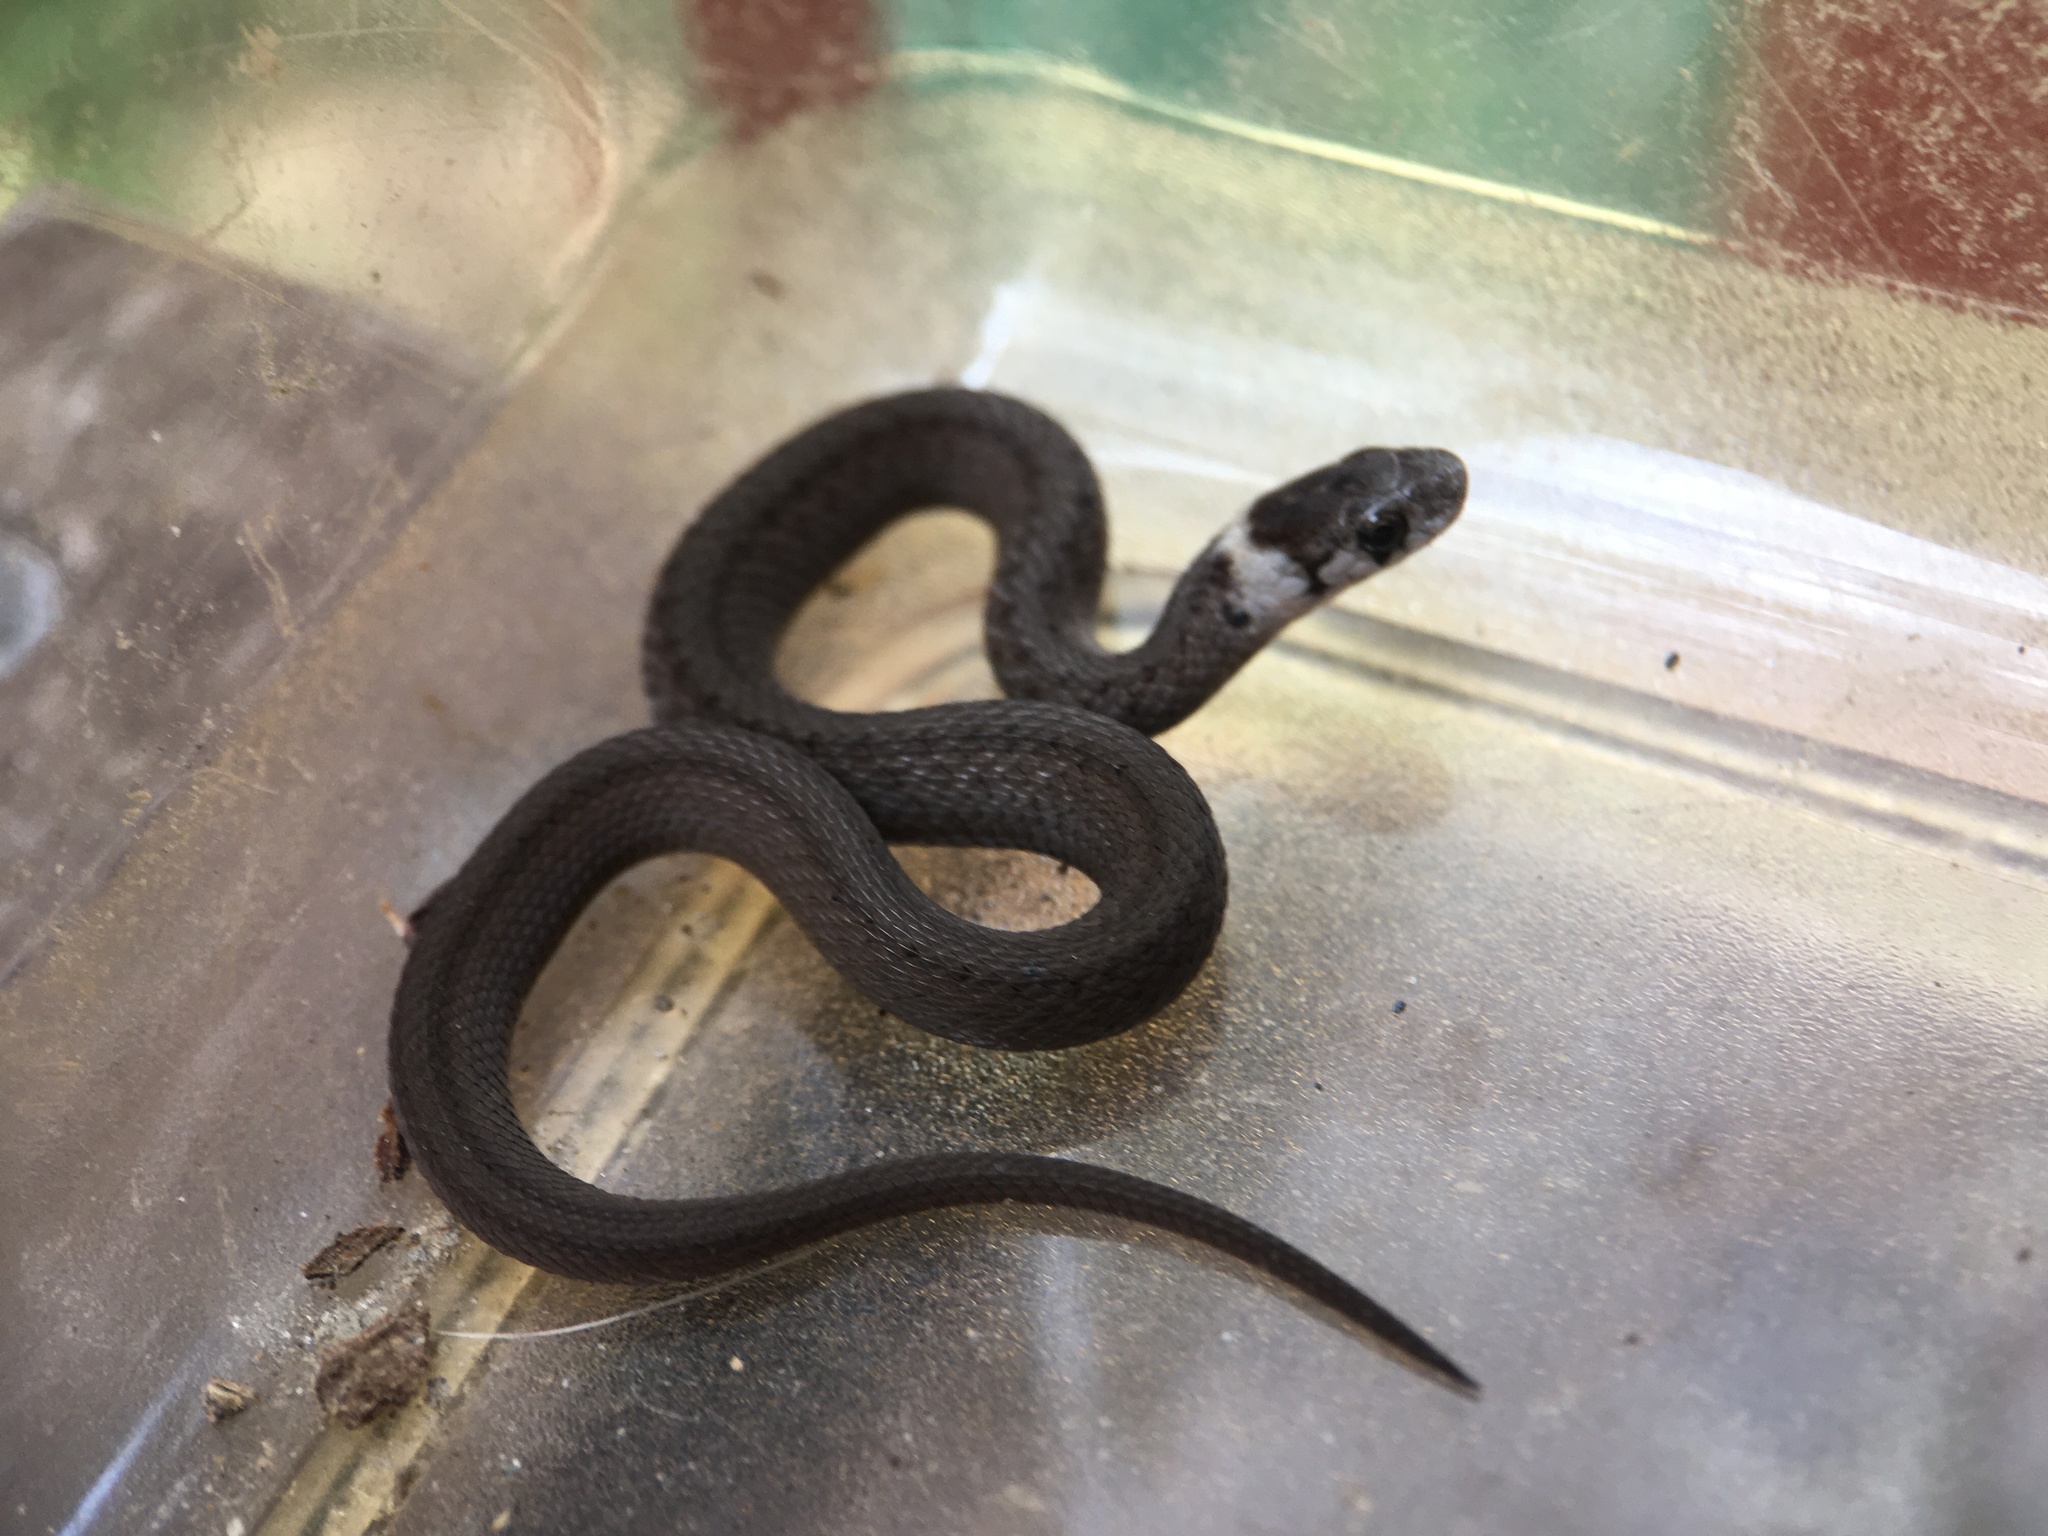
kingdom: Animalia
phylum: Chordata
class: Squamata
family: Colubridae
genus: Storeria
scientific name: Storeria dekayi
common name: (dekay’s) brown snake
